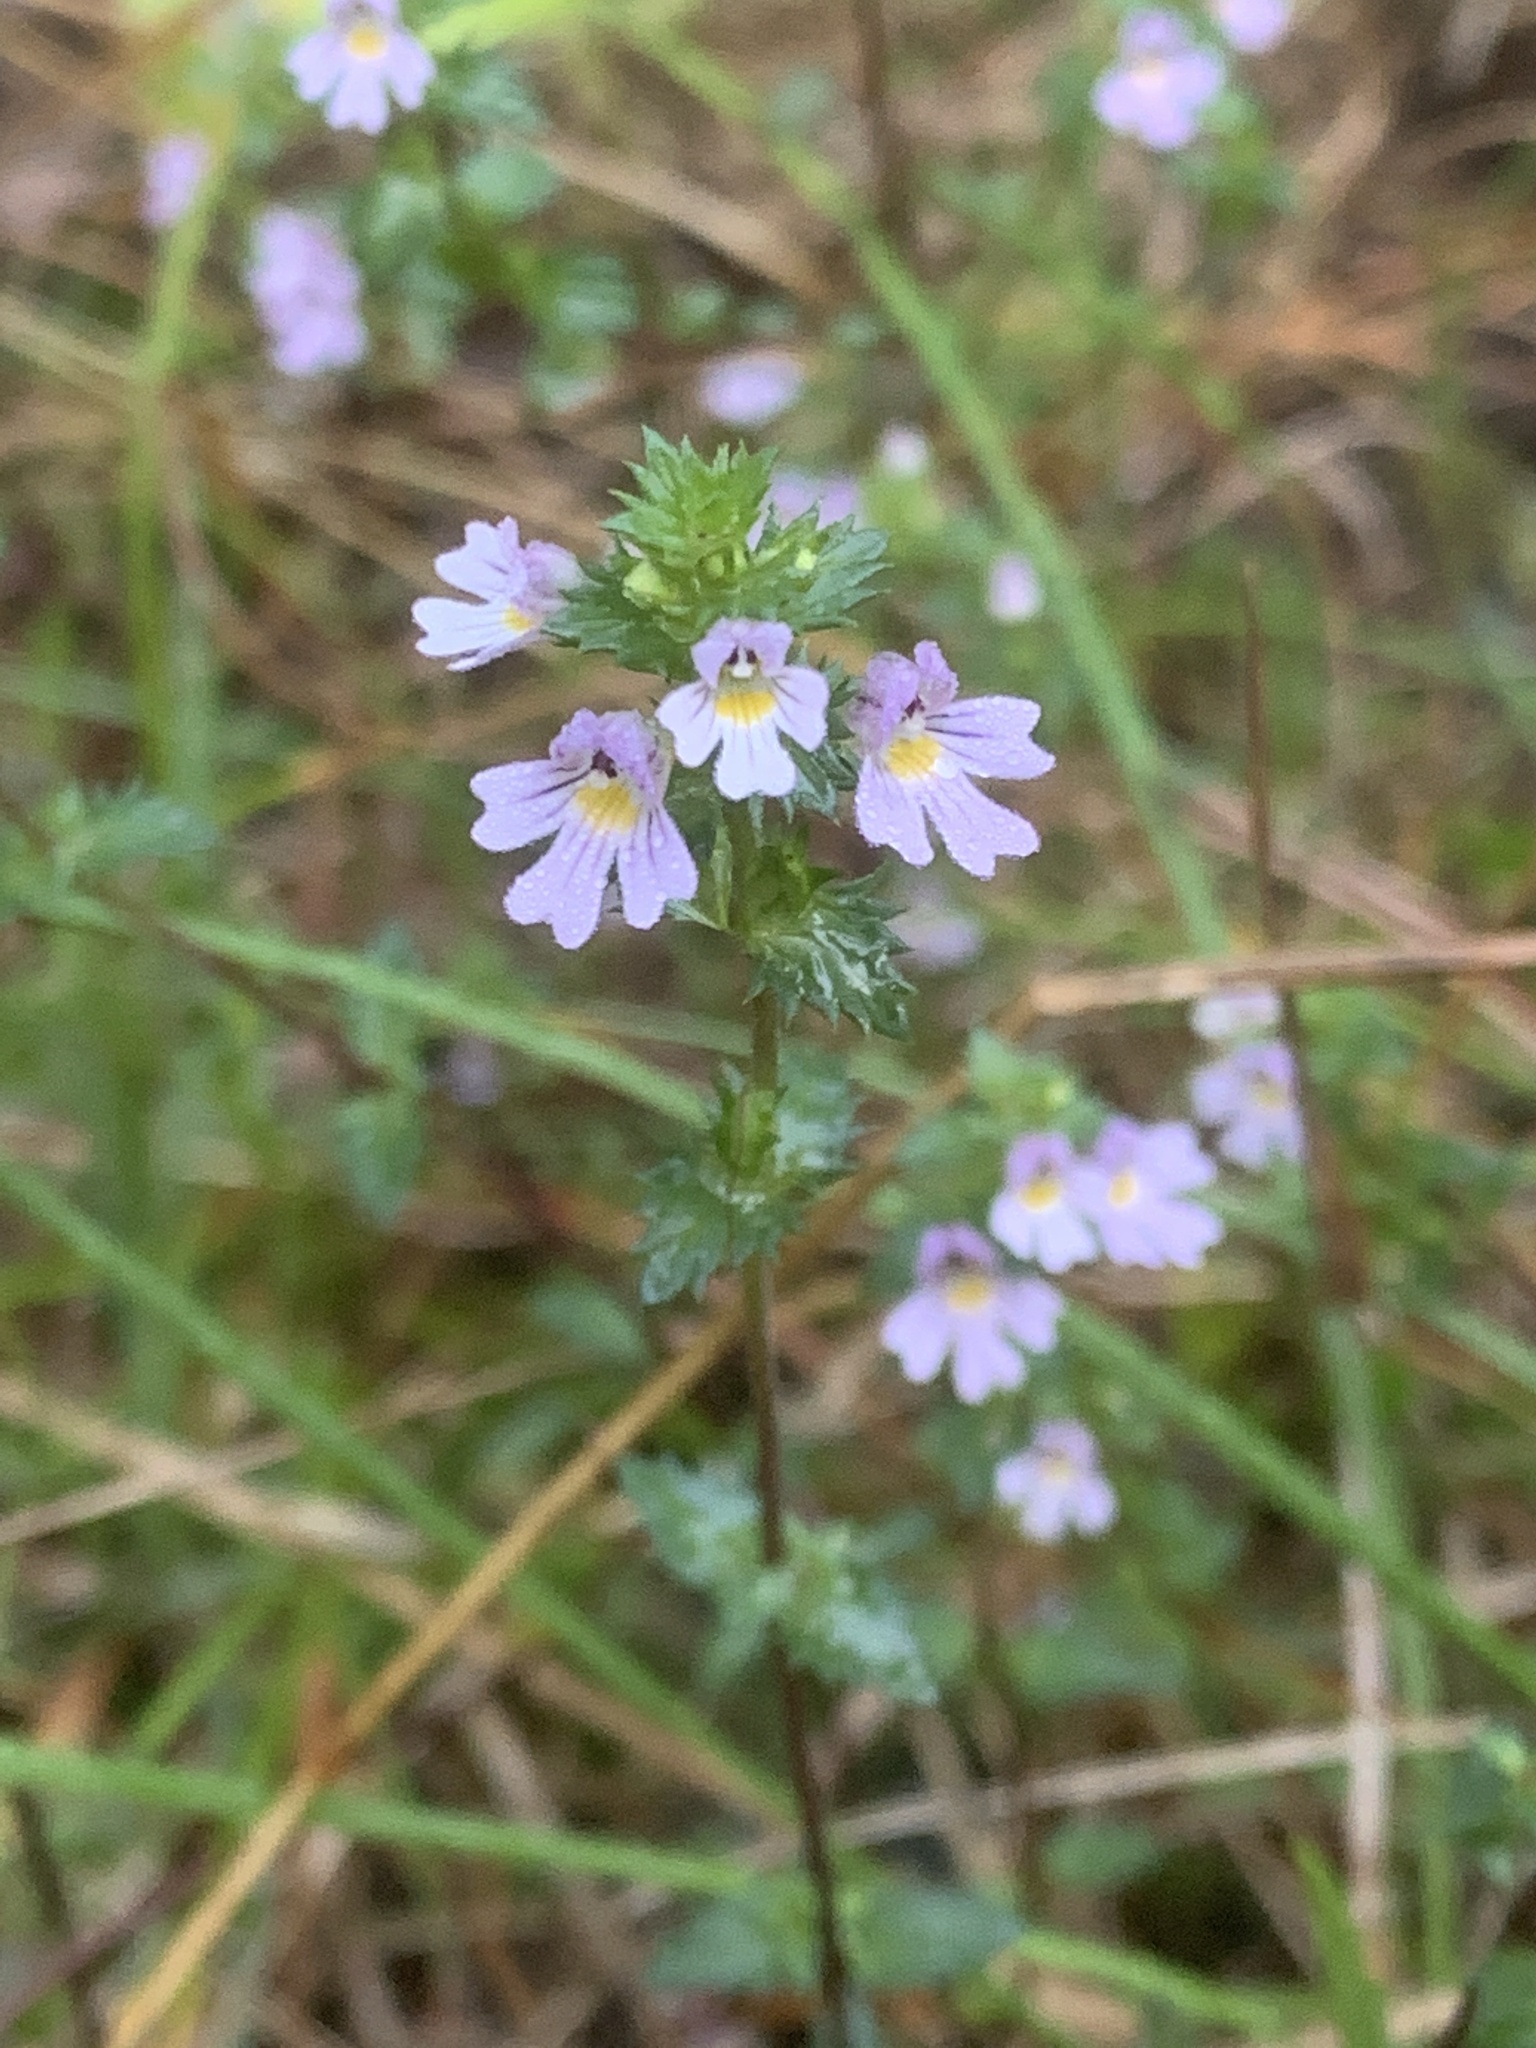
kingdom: Plantae
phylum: Tracheophyta
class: Magnoliopsida
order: Lamiales
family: Orobanchaceae
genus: Euphrasia
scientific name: Euphrasia nemorosa
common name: Common eyebright
